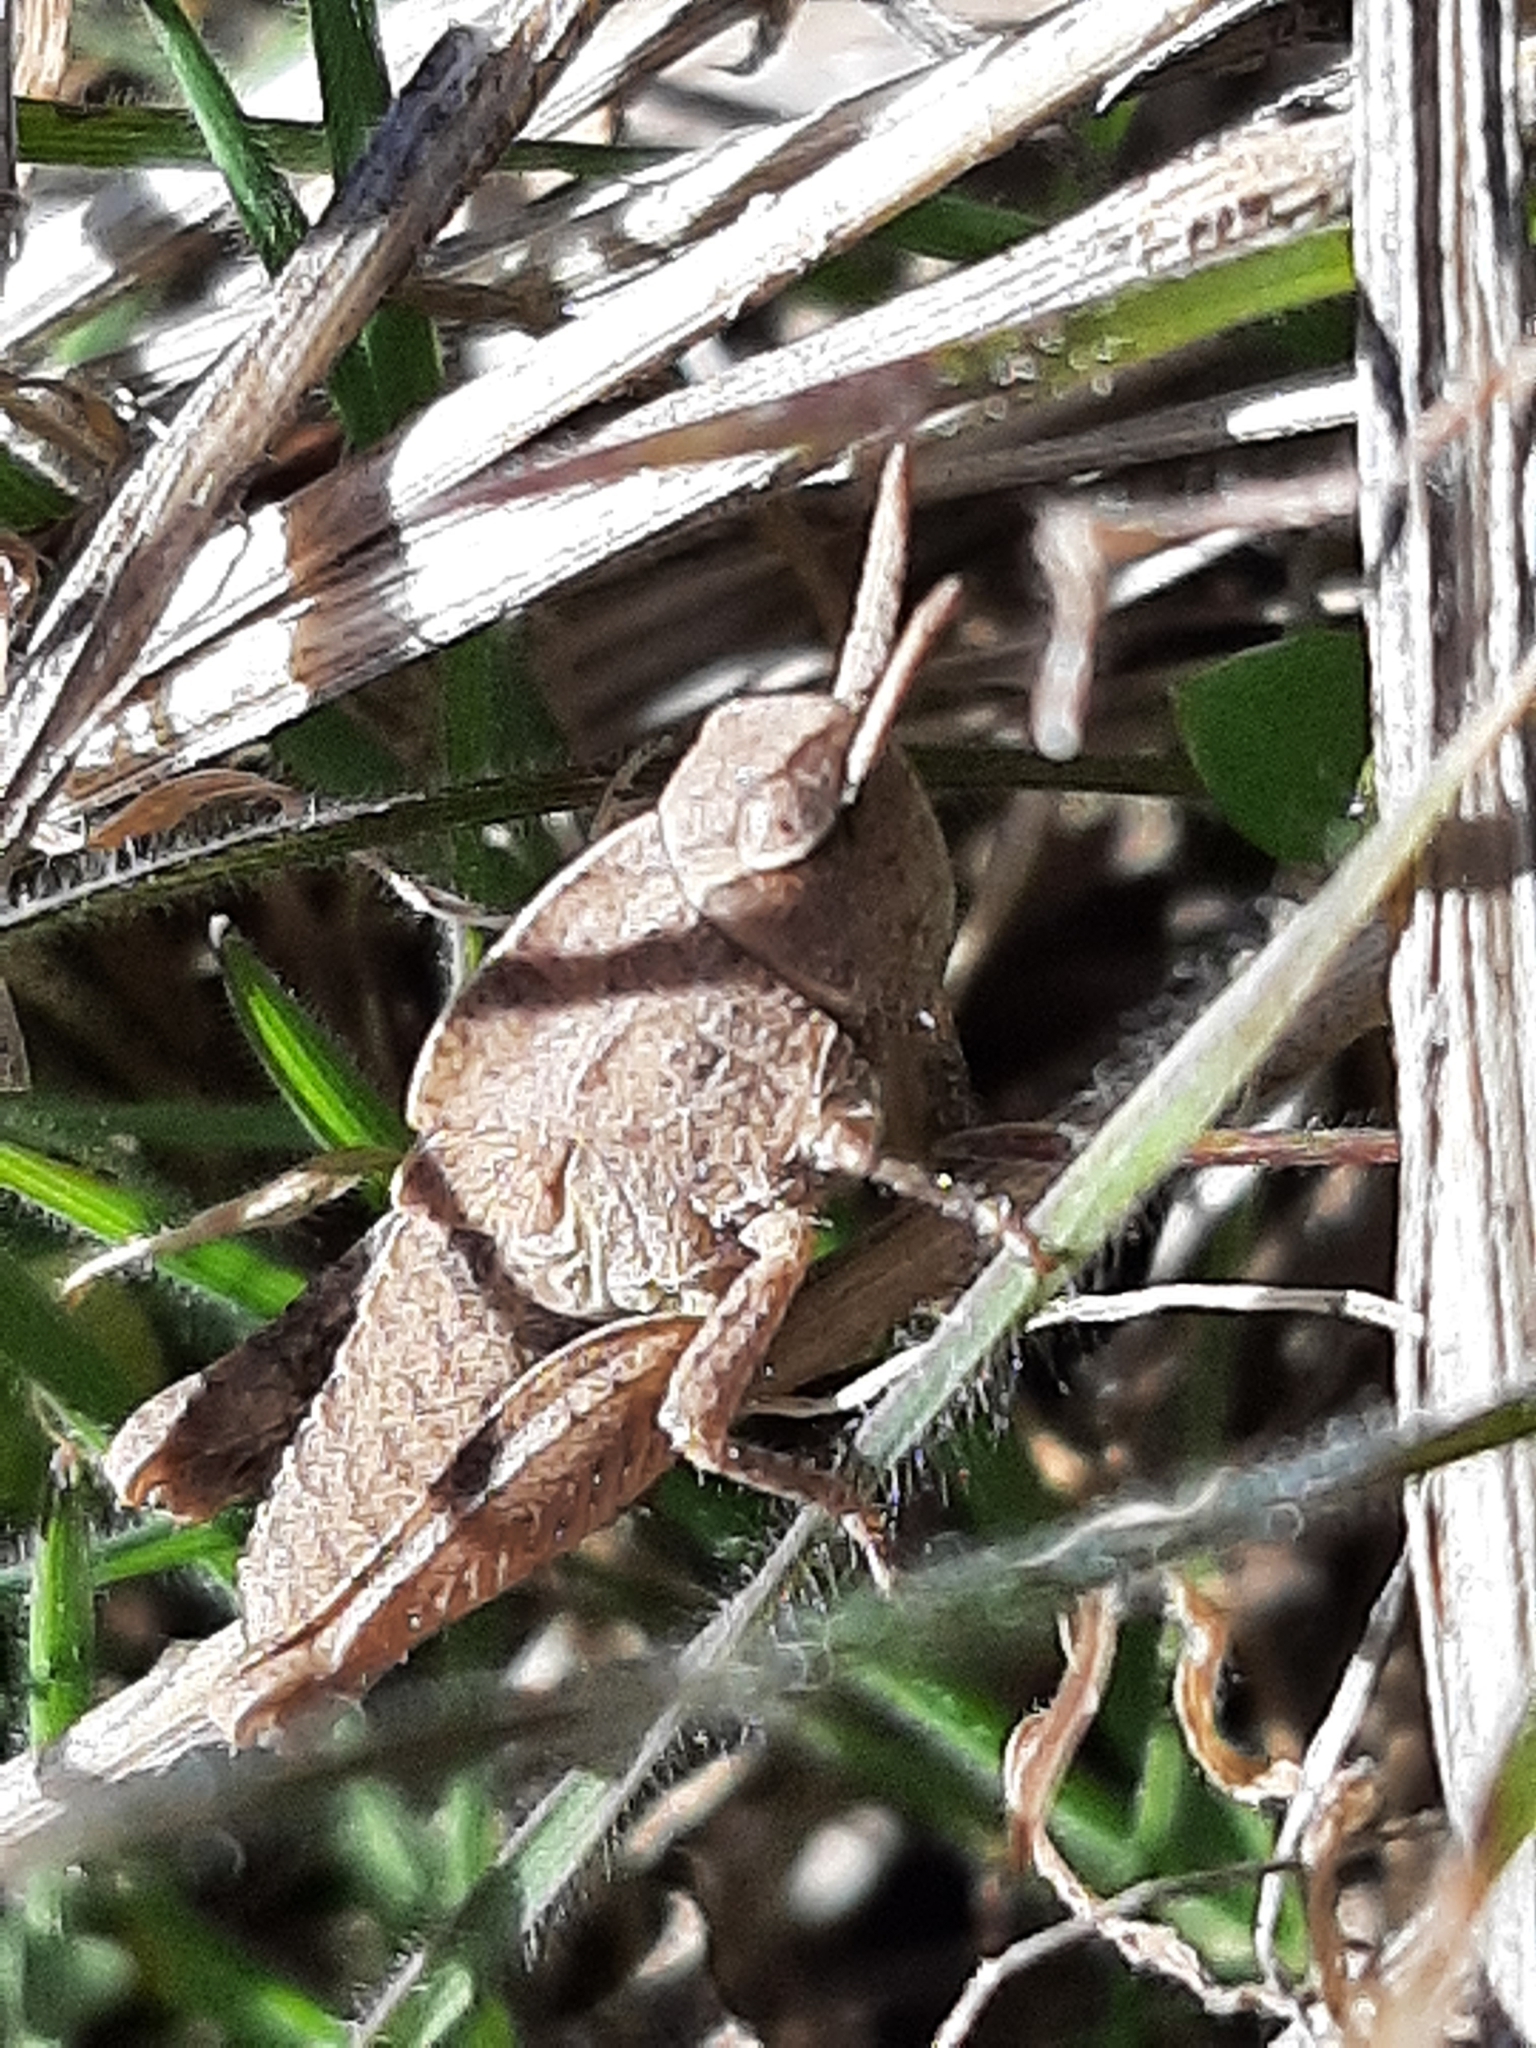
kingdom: Animalia
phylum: Arthropoda
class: Insecta
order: Orthoptera
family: Acrididae
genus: Chortophaga
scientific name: Chortophaga viridifasciata
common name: Green-striped grasshopper
